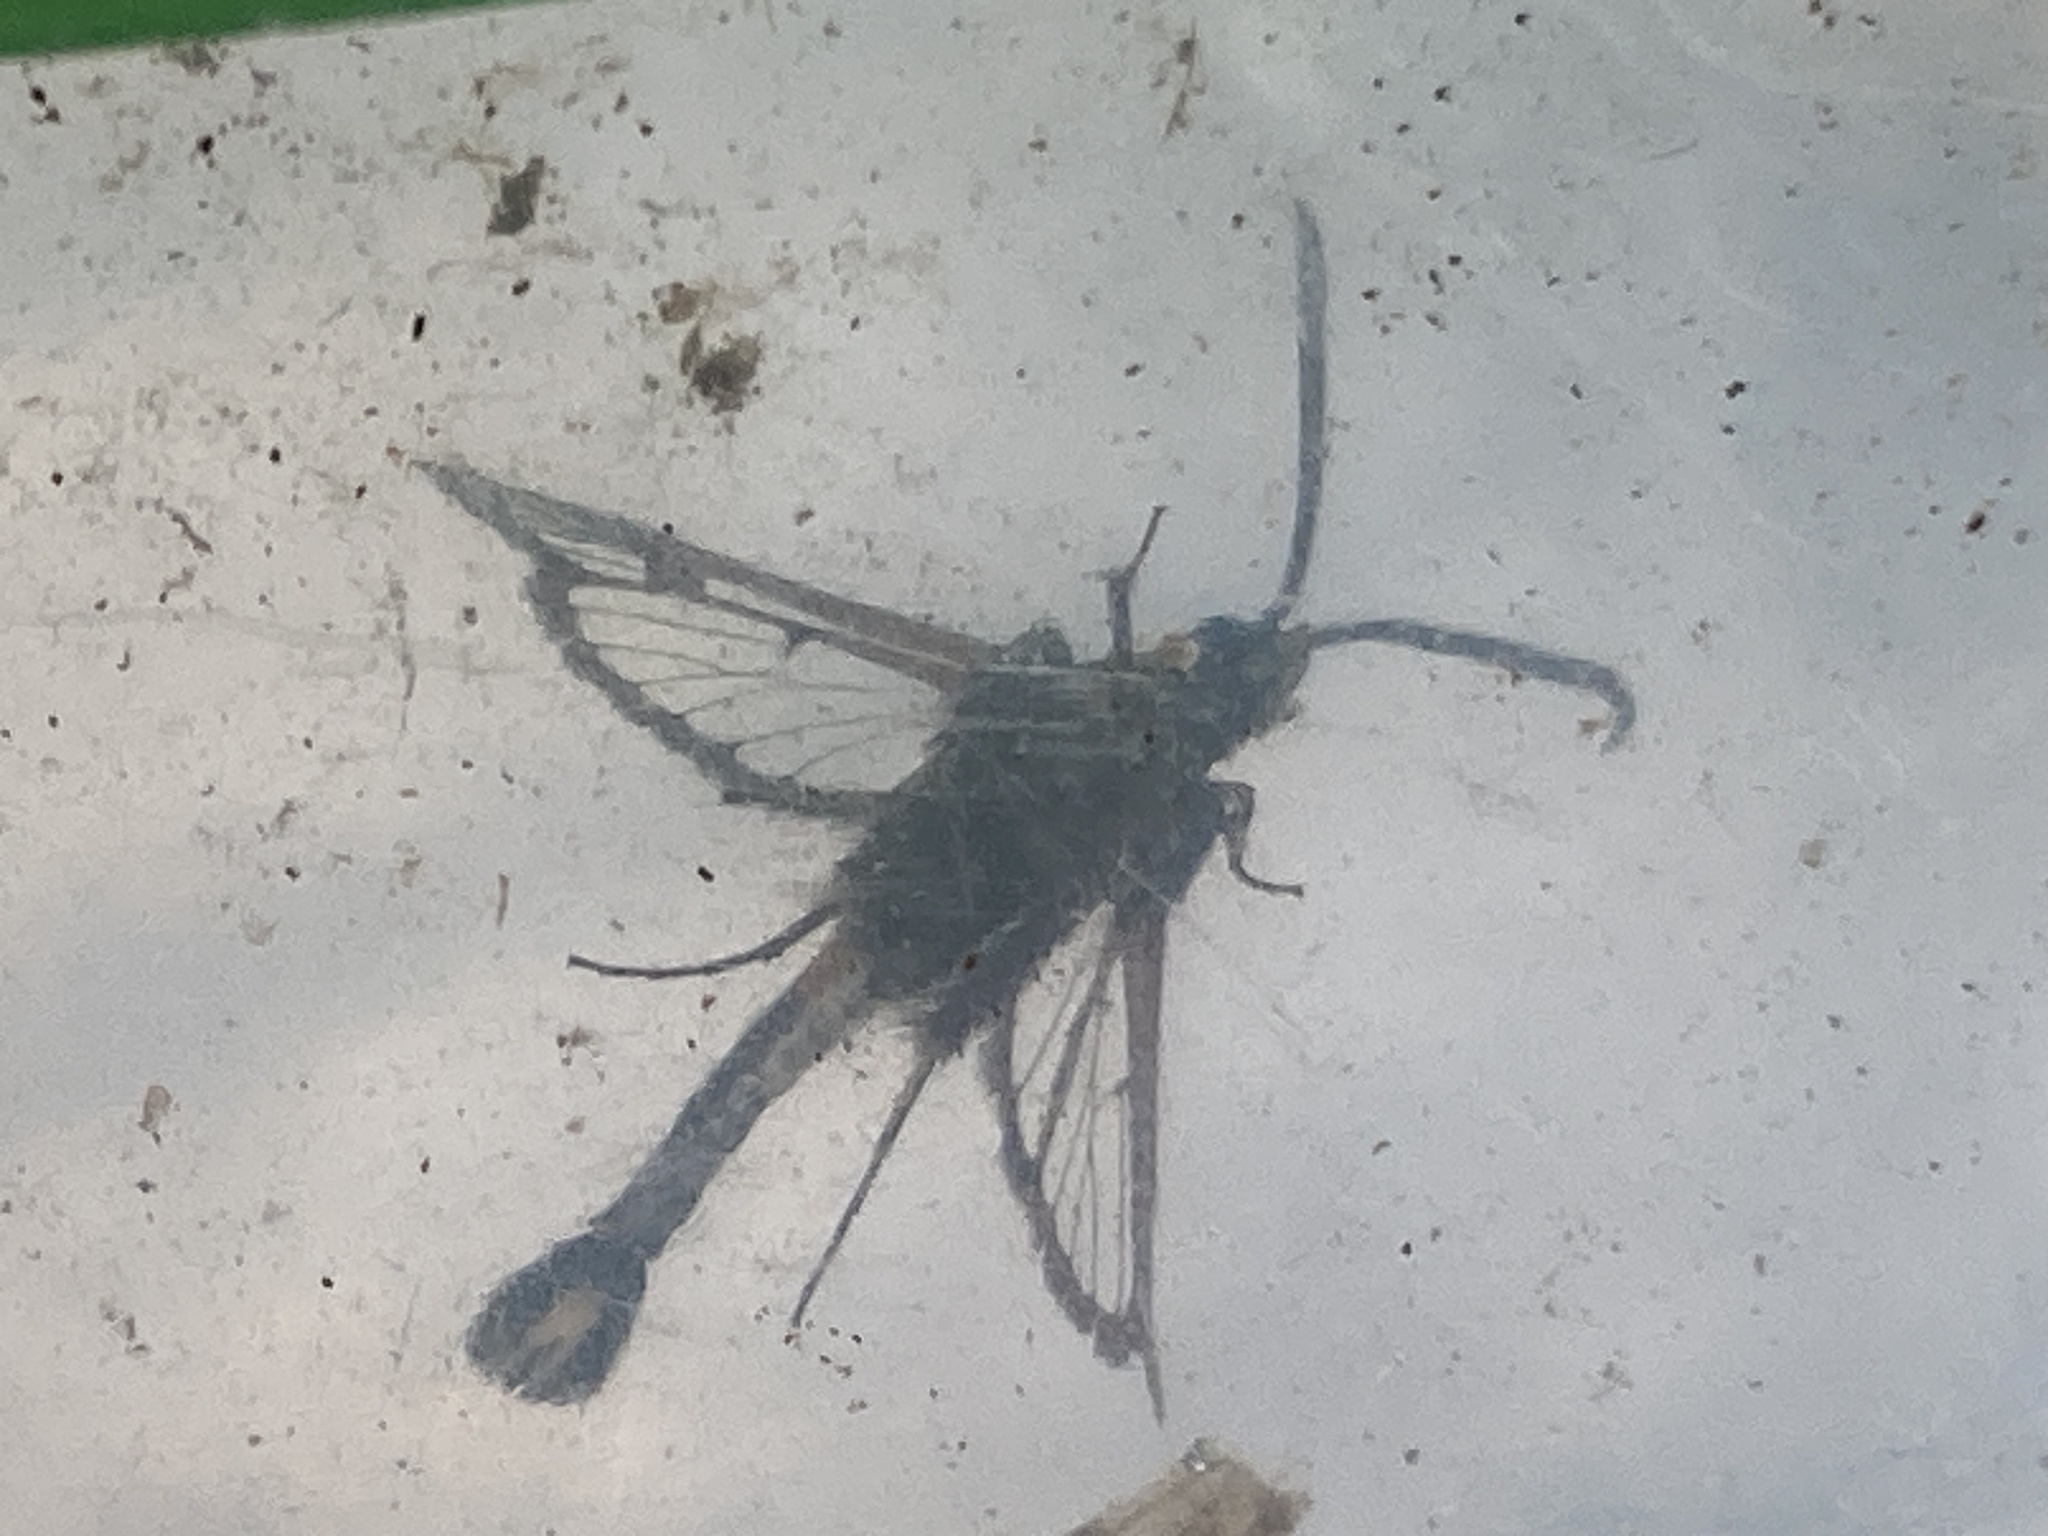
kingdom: Animalia
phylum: Arthropoda
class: Insecta
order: Lepidoptera
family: Sesiidae
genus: Synanthedon
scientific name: Synanthedon myopaeformis
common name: Red-belted clearwing
